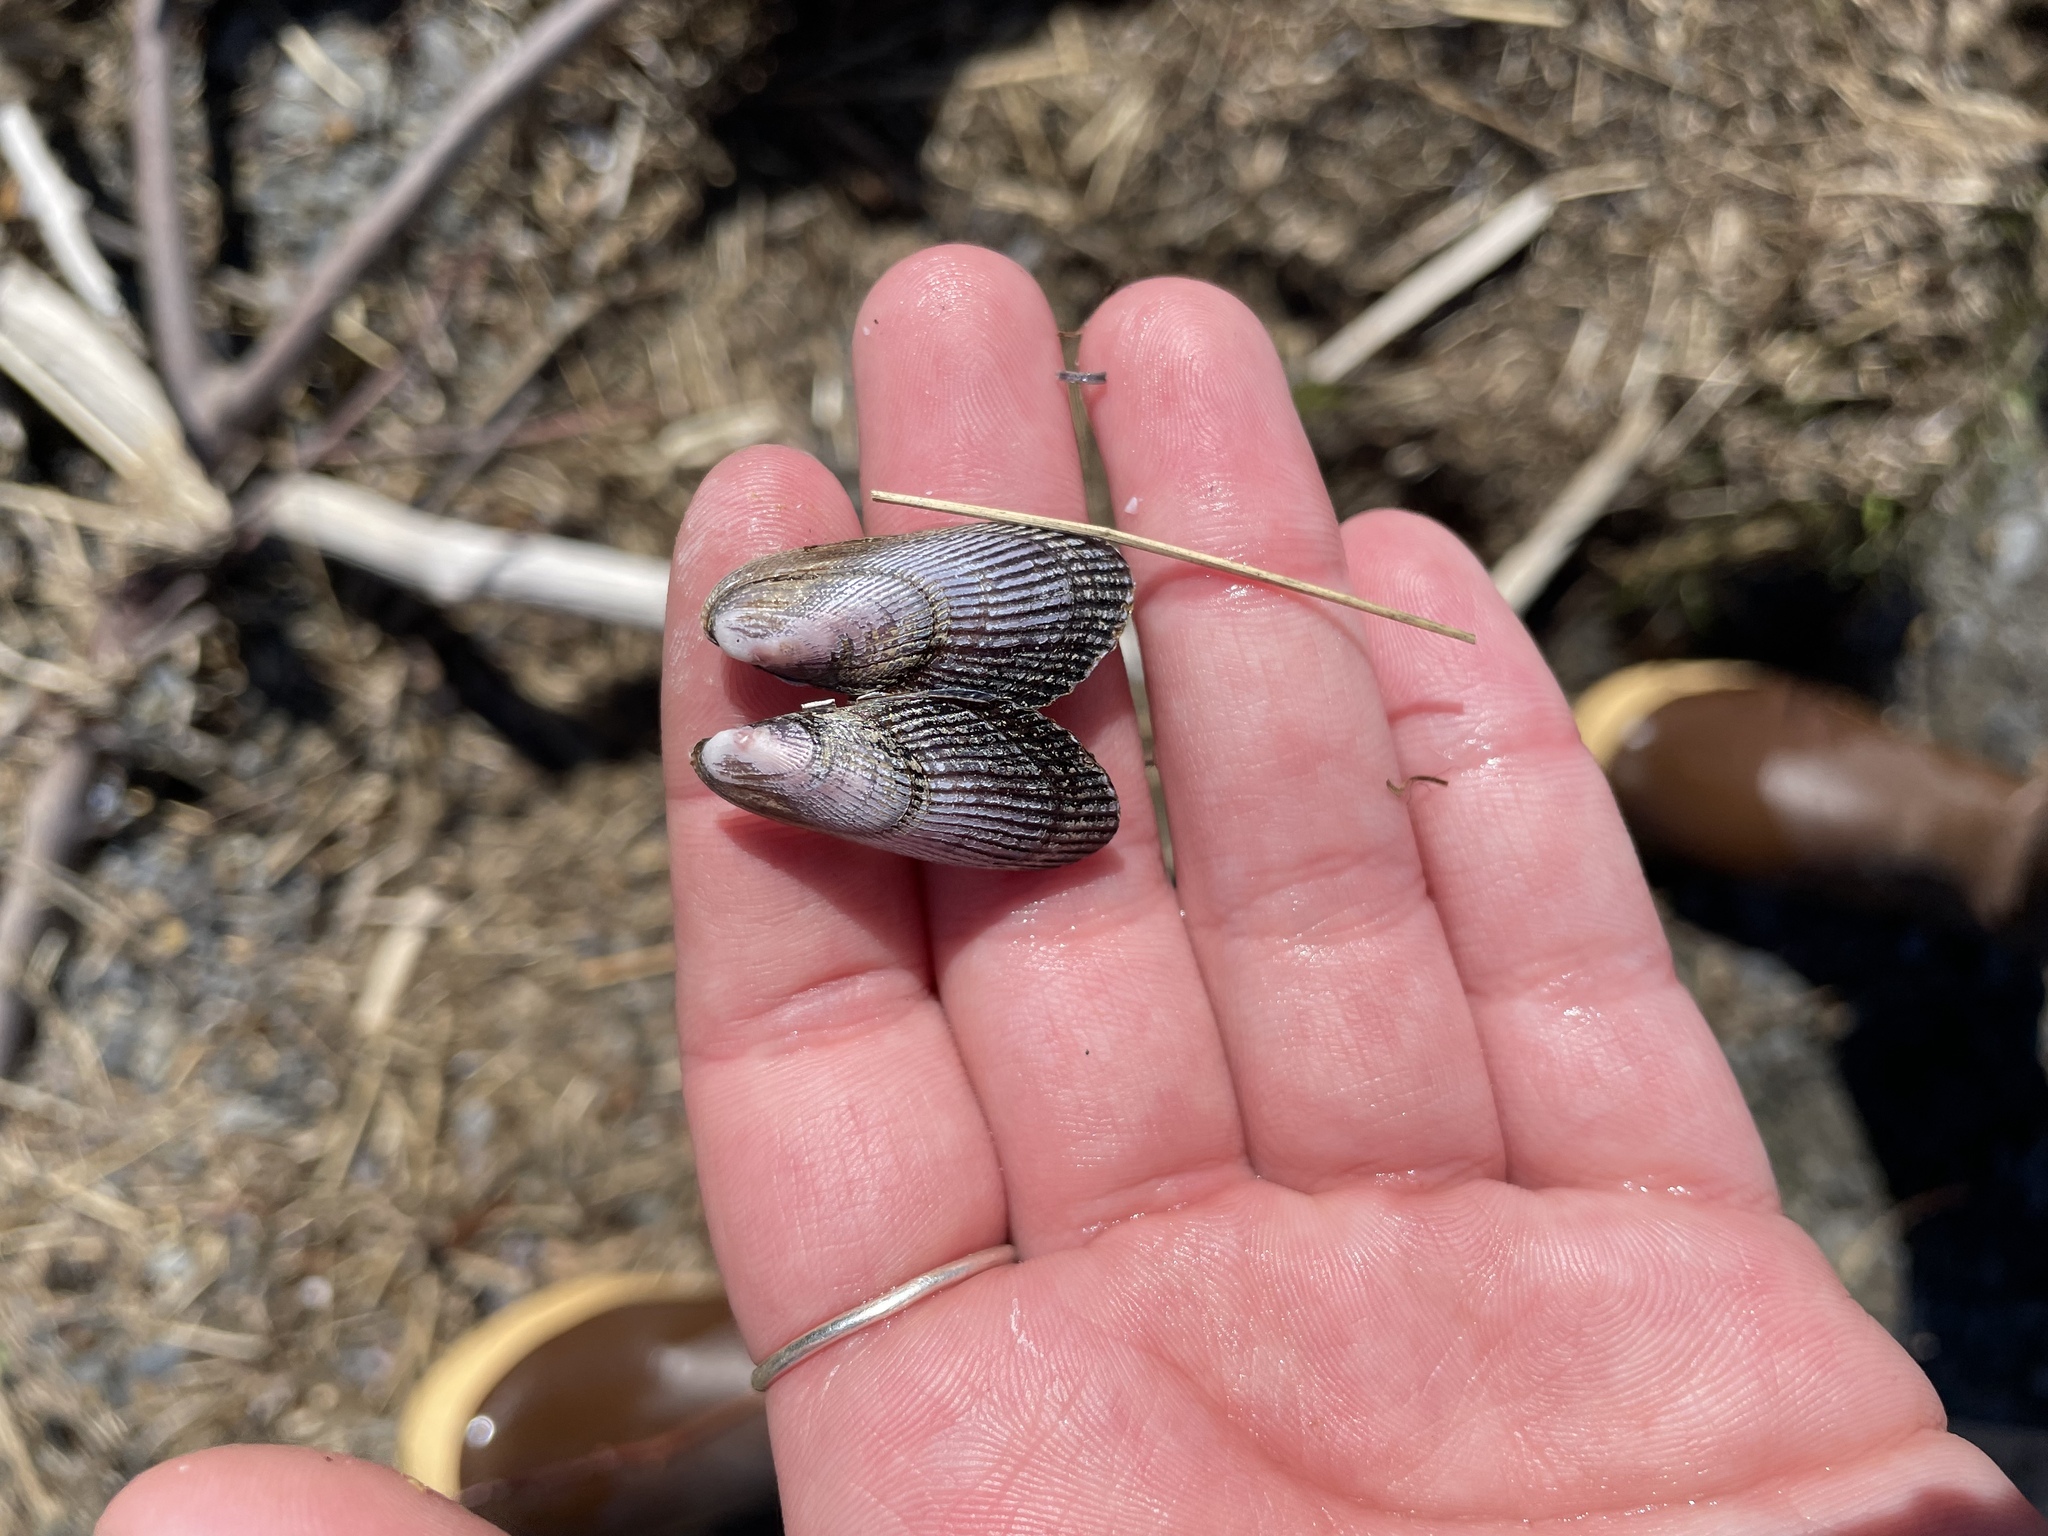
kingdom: Animalia
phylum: Mollusca
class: Bivalvia
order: Mytilida
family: Mytilidae
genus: Geukensia
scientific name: Geukensia demissa
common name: Ribbed mussel
